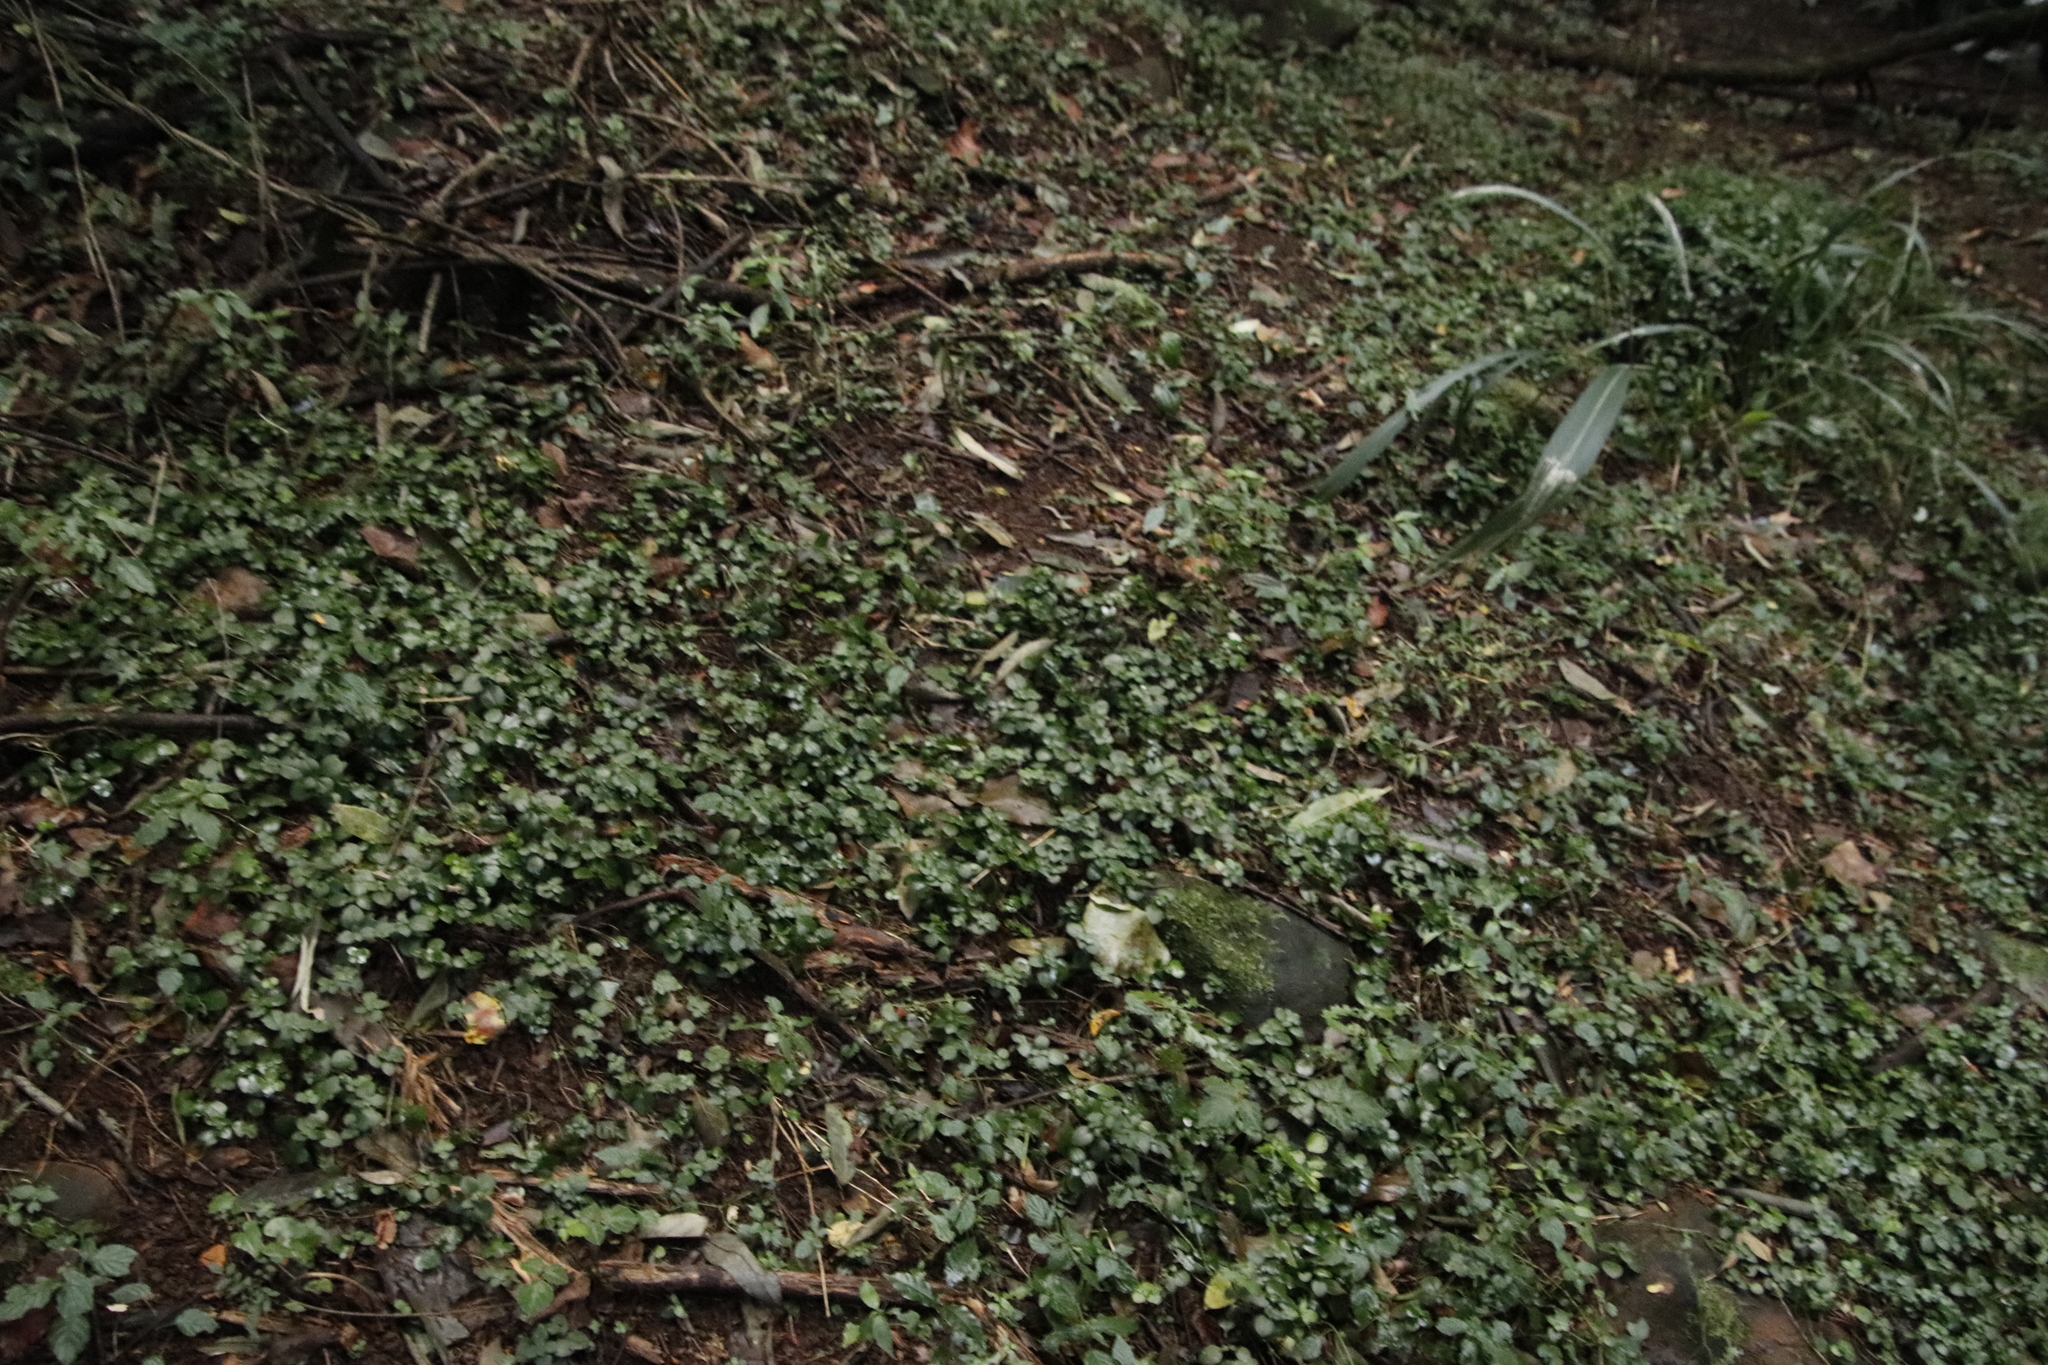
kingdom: Plantae
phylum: Tracheophyta
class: Magnoliopsida
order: Saxifragales
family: Crassulaceae
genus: Crassula
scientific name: Crassula inandensis
